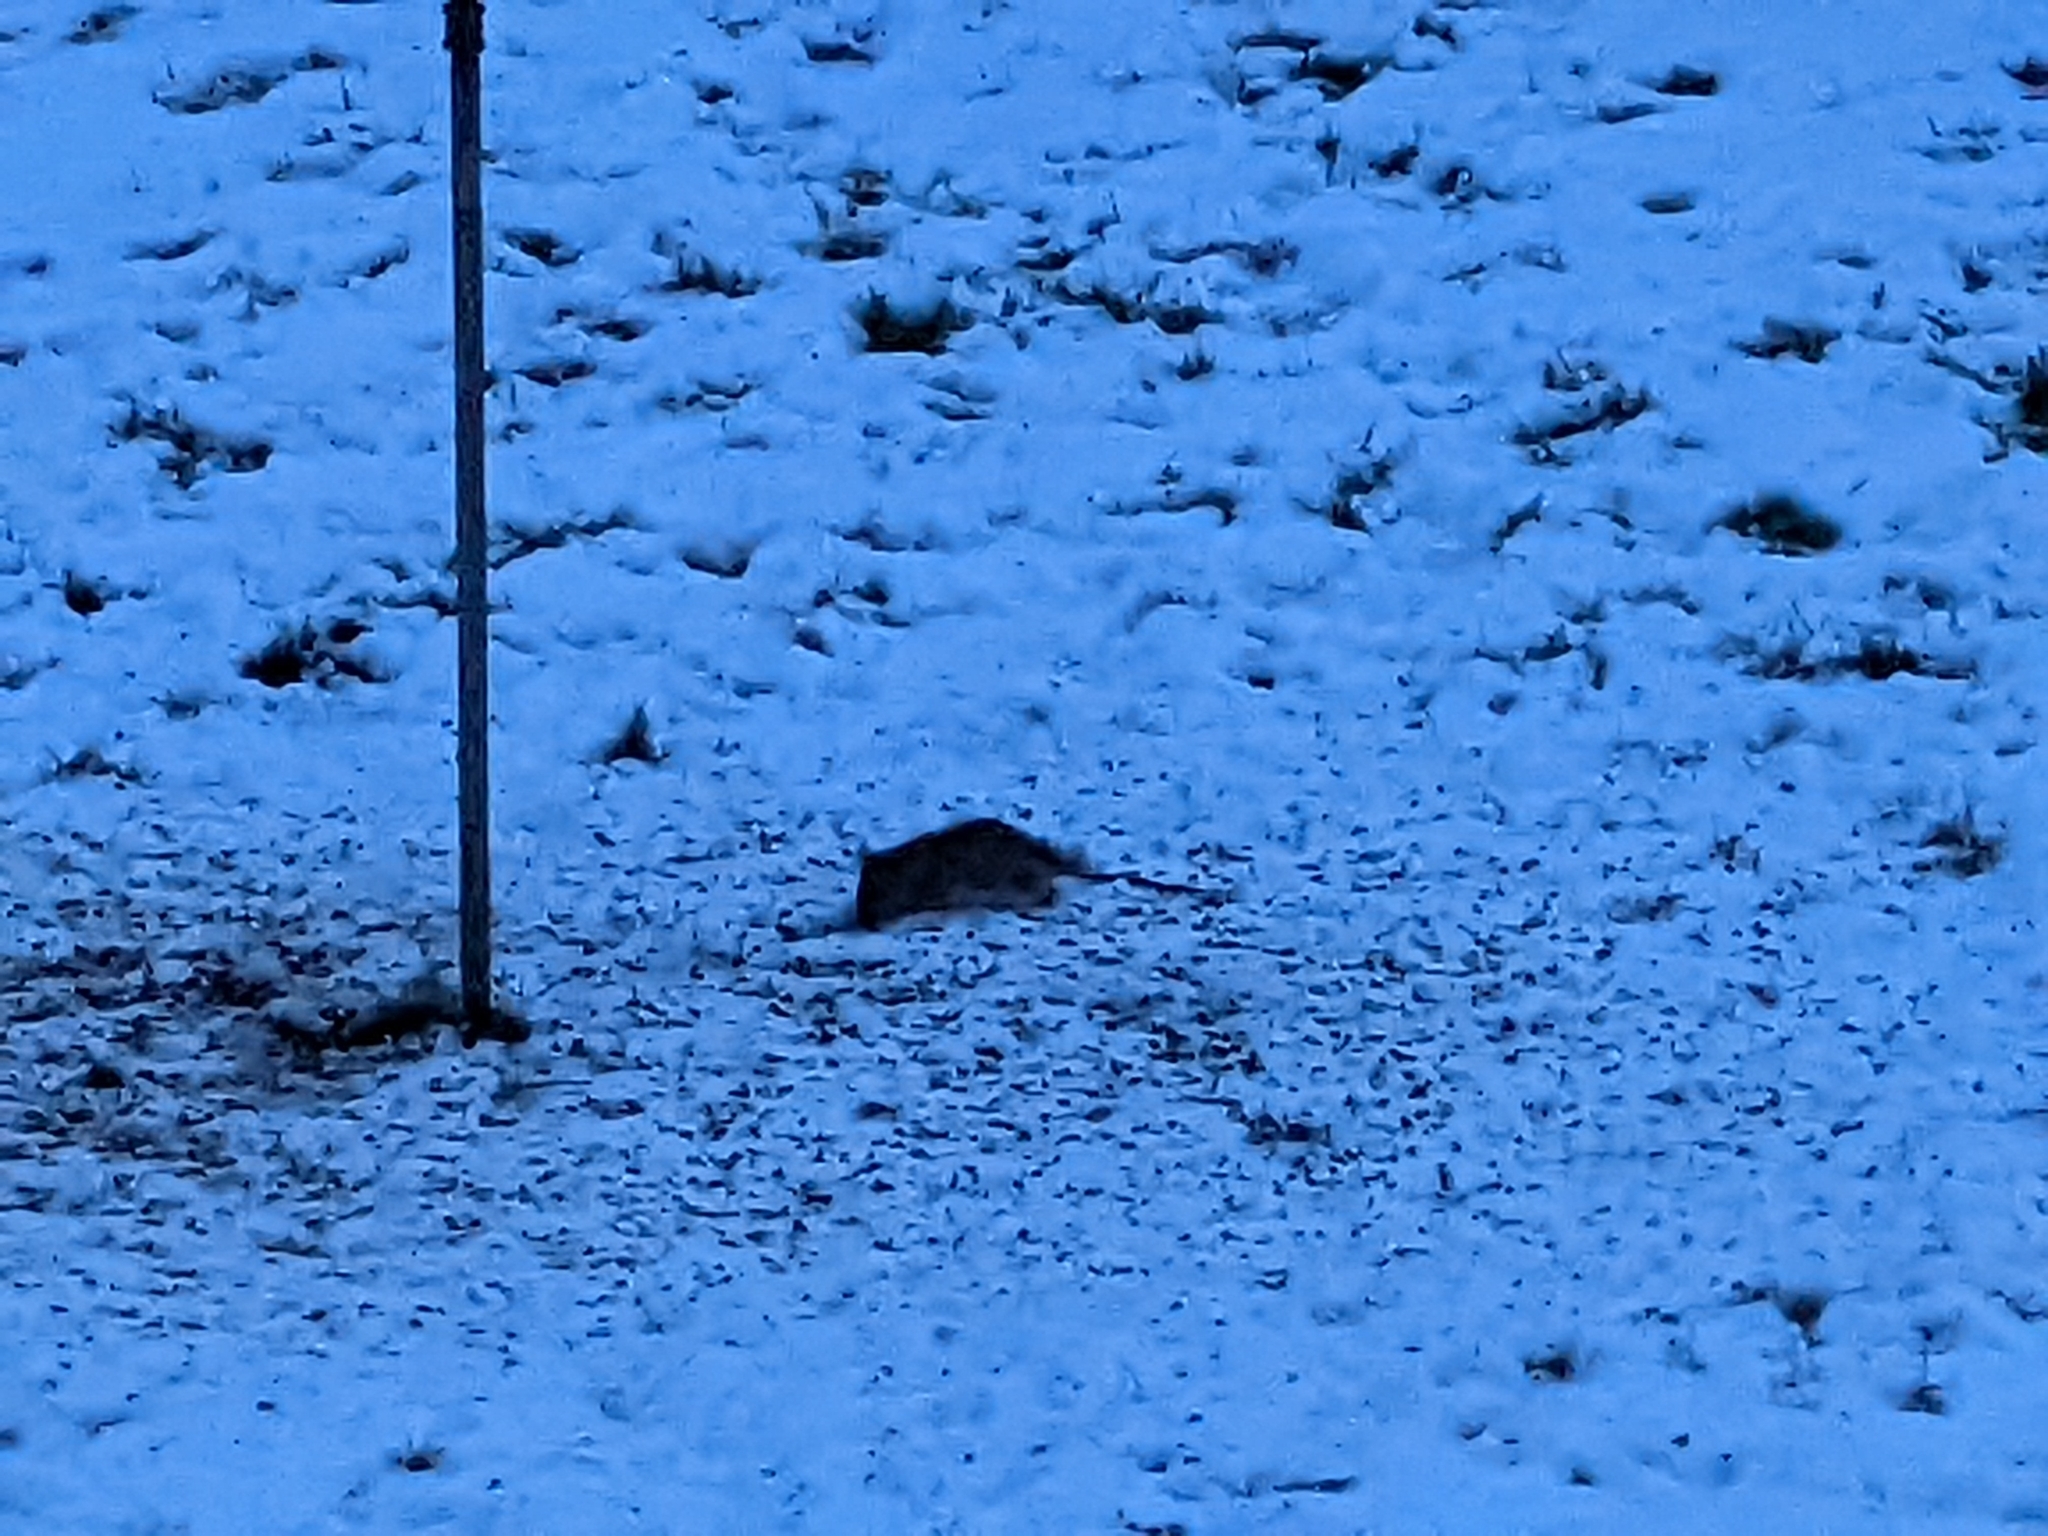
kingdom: Animalia
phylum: Chordata
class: Mammalia
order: Rodentia
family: Muridae
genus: Rattus
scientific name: Rattus norvegicus
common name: Brown rat
